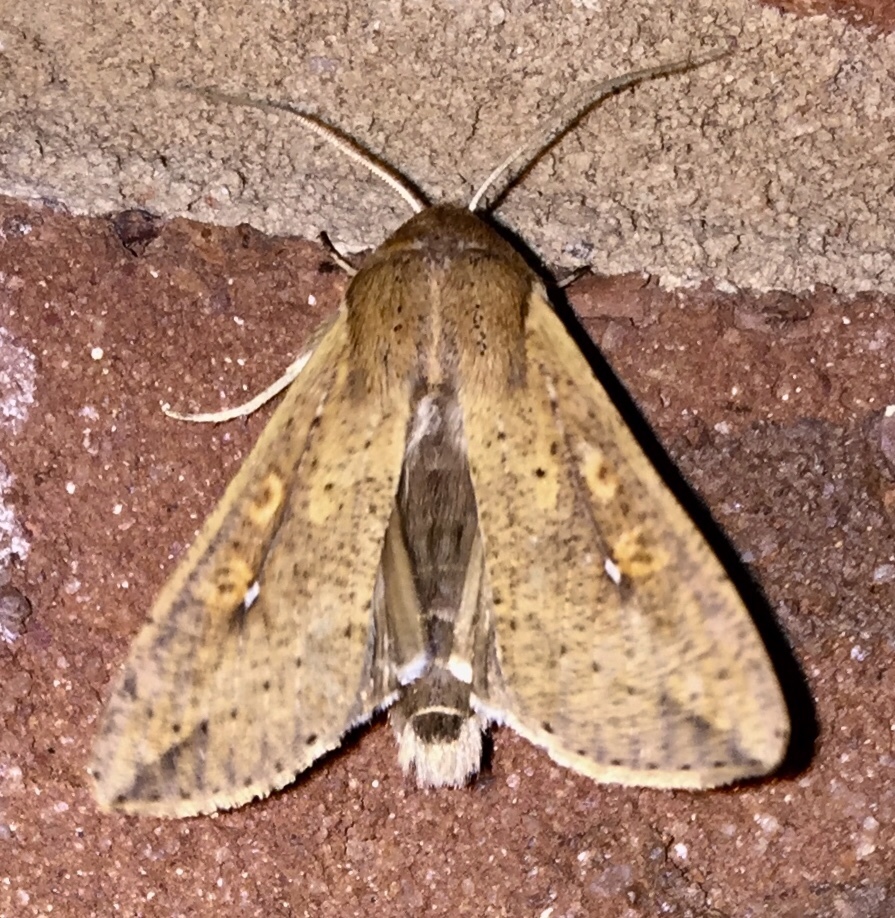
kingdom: Animalia
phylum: Arthropoda
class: Insecta
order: Lepidoptera
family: Noctuidae
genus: Mythimna
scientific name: Mythimna unipuncta
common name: White-speck
